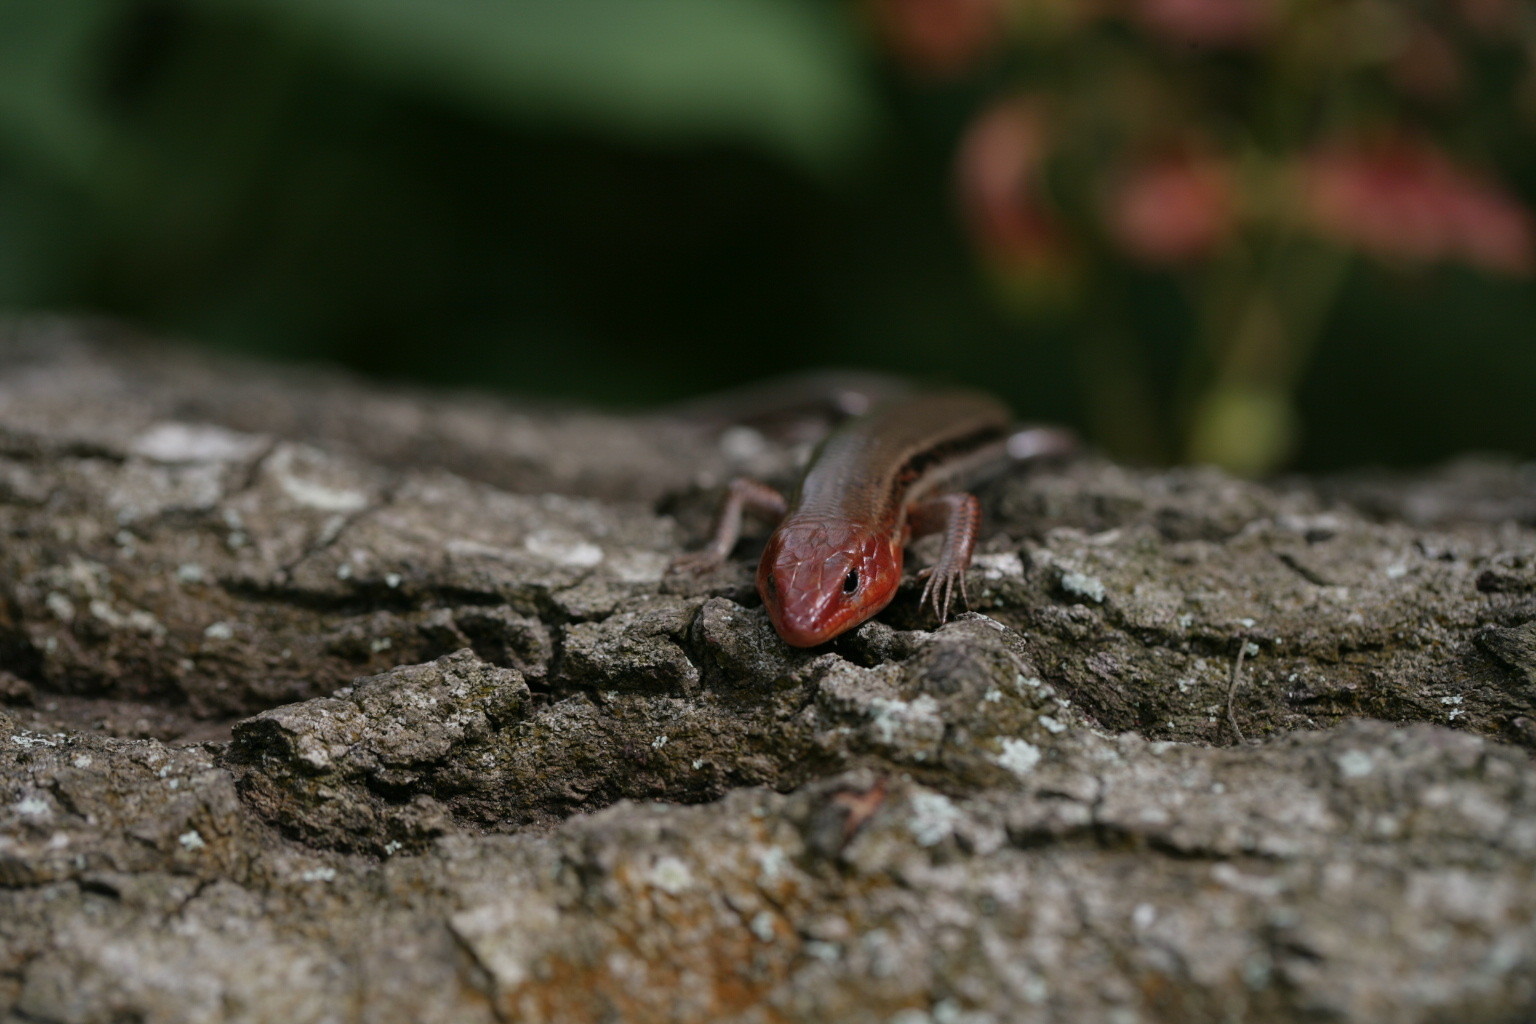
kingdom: Animalia
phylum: Chordata
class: Squamata
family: Scincidae
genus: Plestiodon
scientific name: Plestiodon inexpectatus
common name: Southeastern five-lined skink
